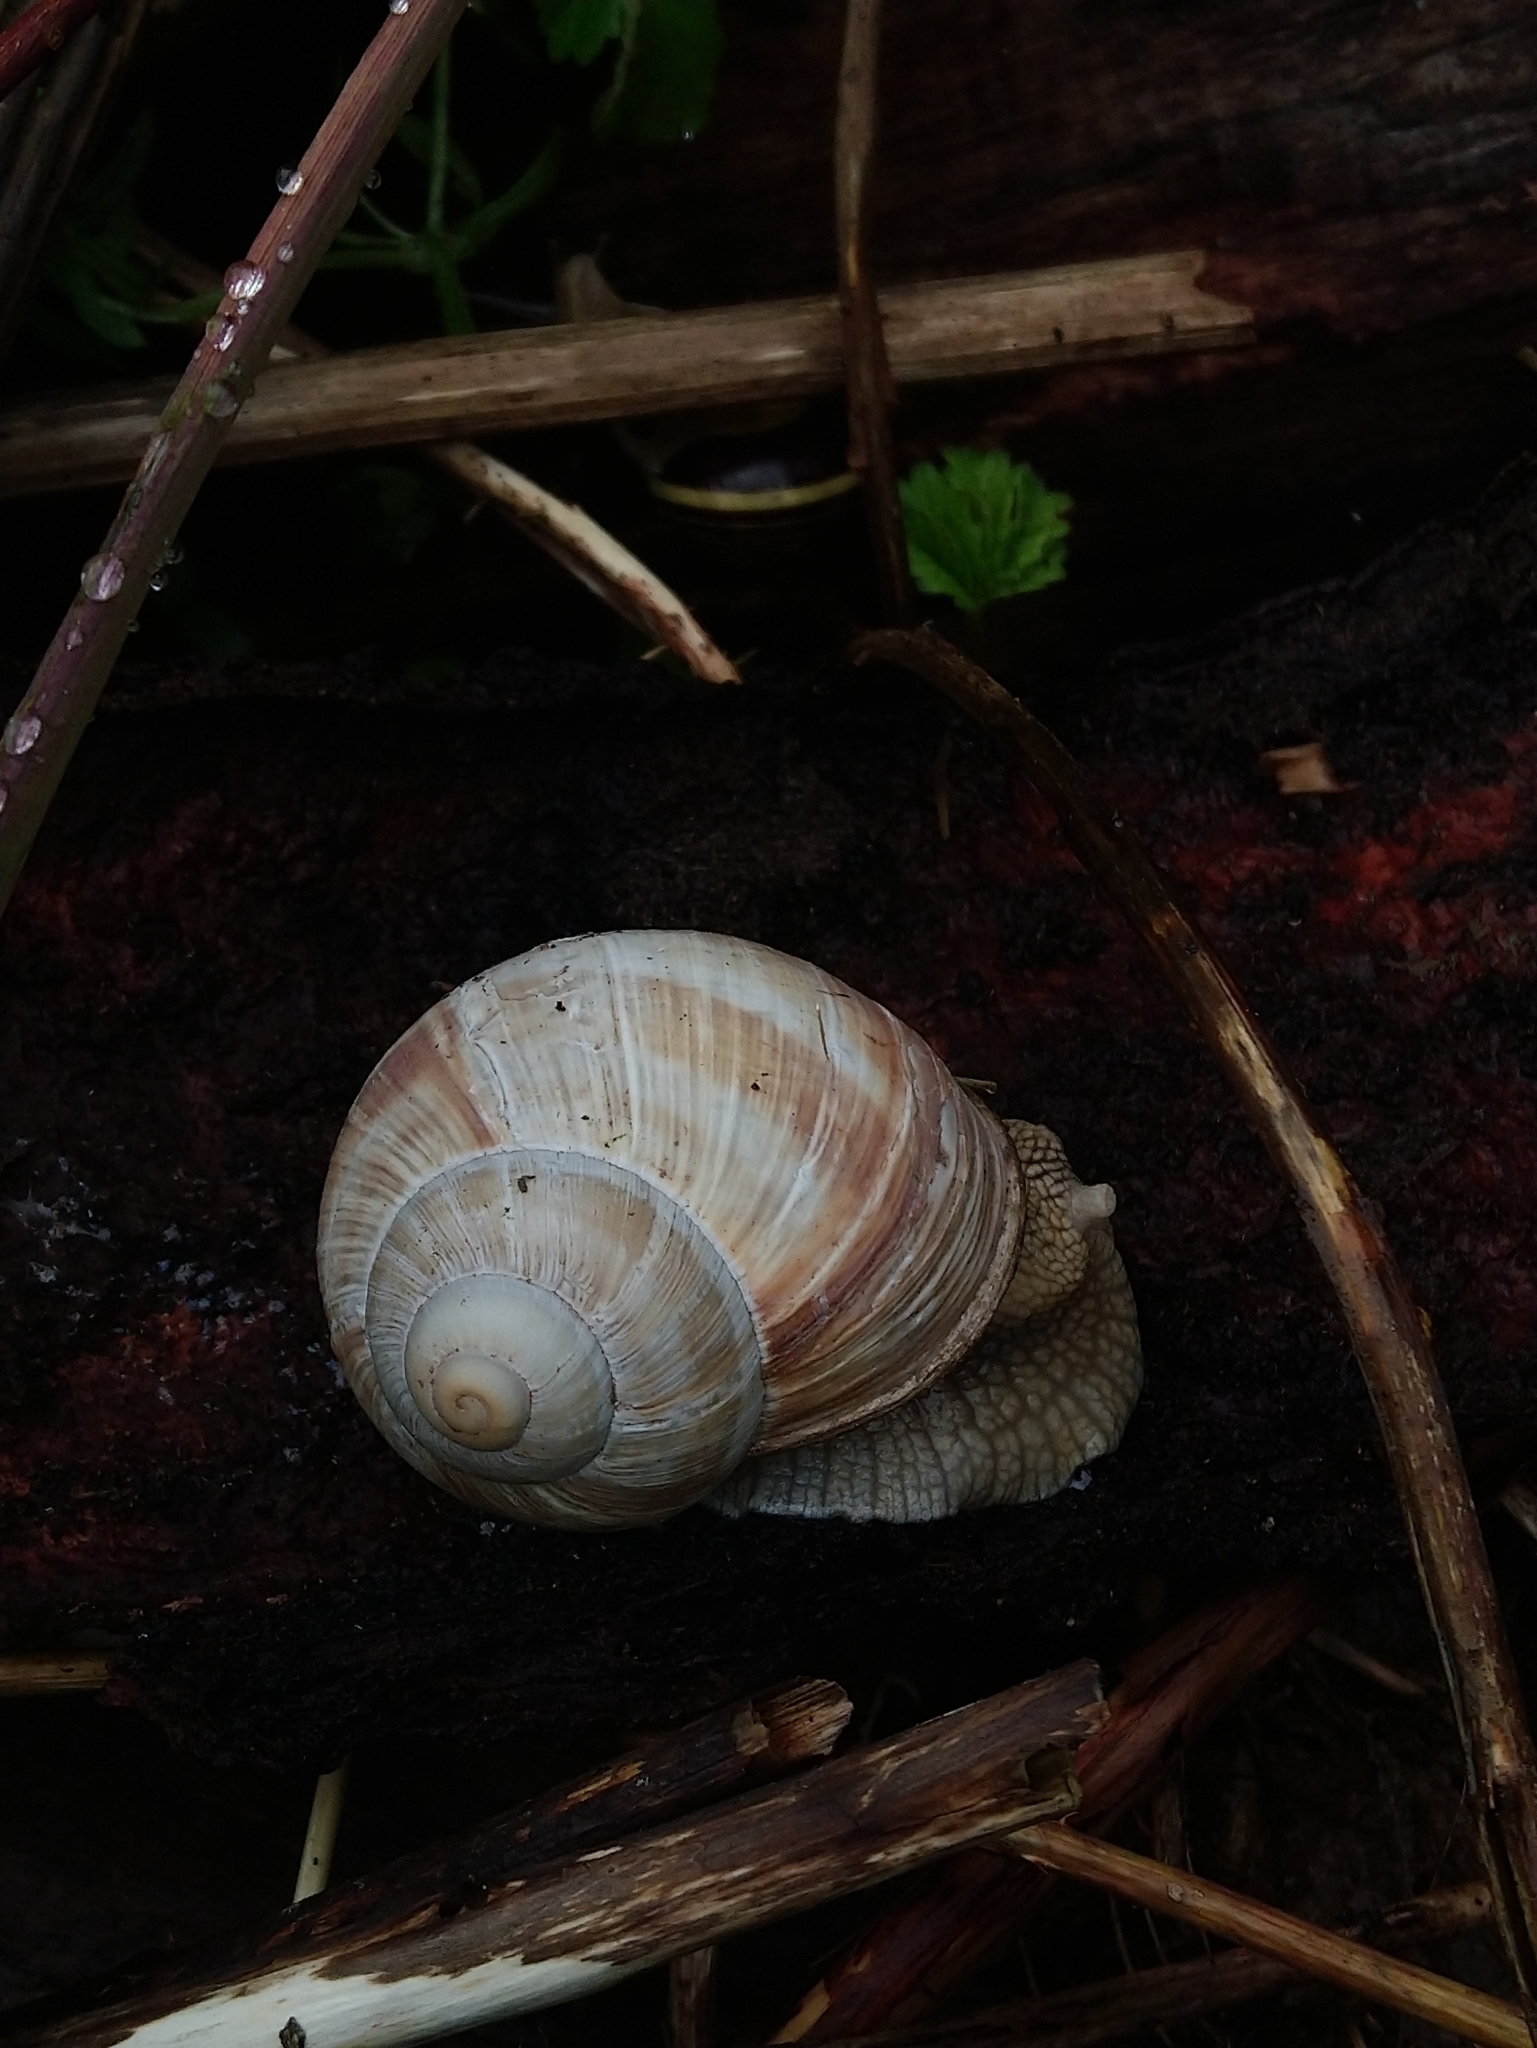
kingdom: Animalia
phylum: Mollusca
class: Gastropoda
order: Stylommatophora
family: Helicidae
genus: Helix
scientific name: Helix pomatia
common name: Roman snail
